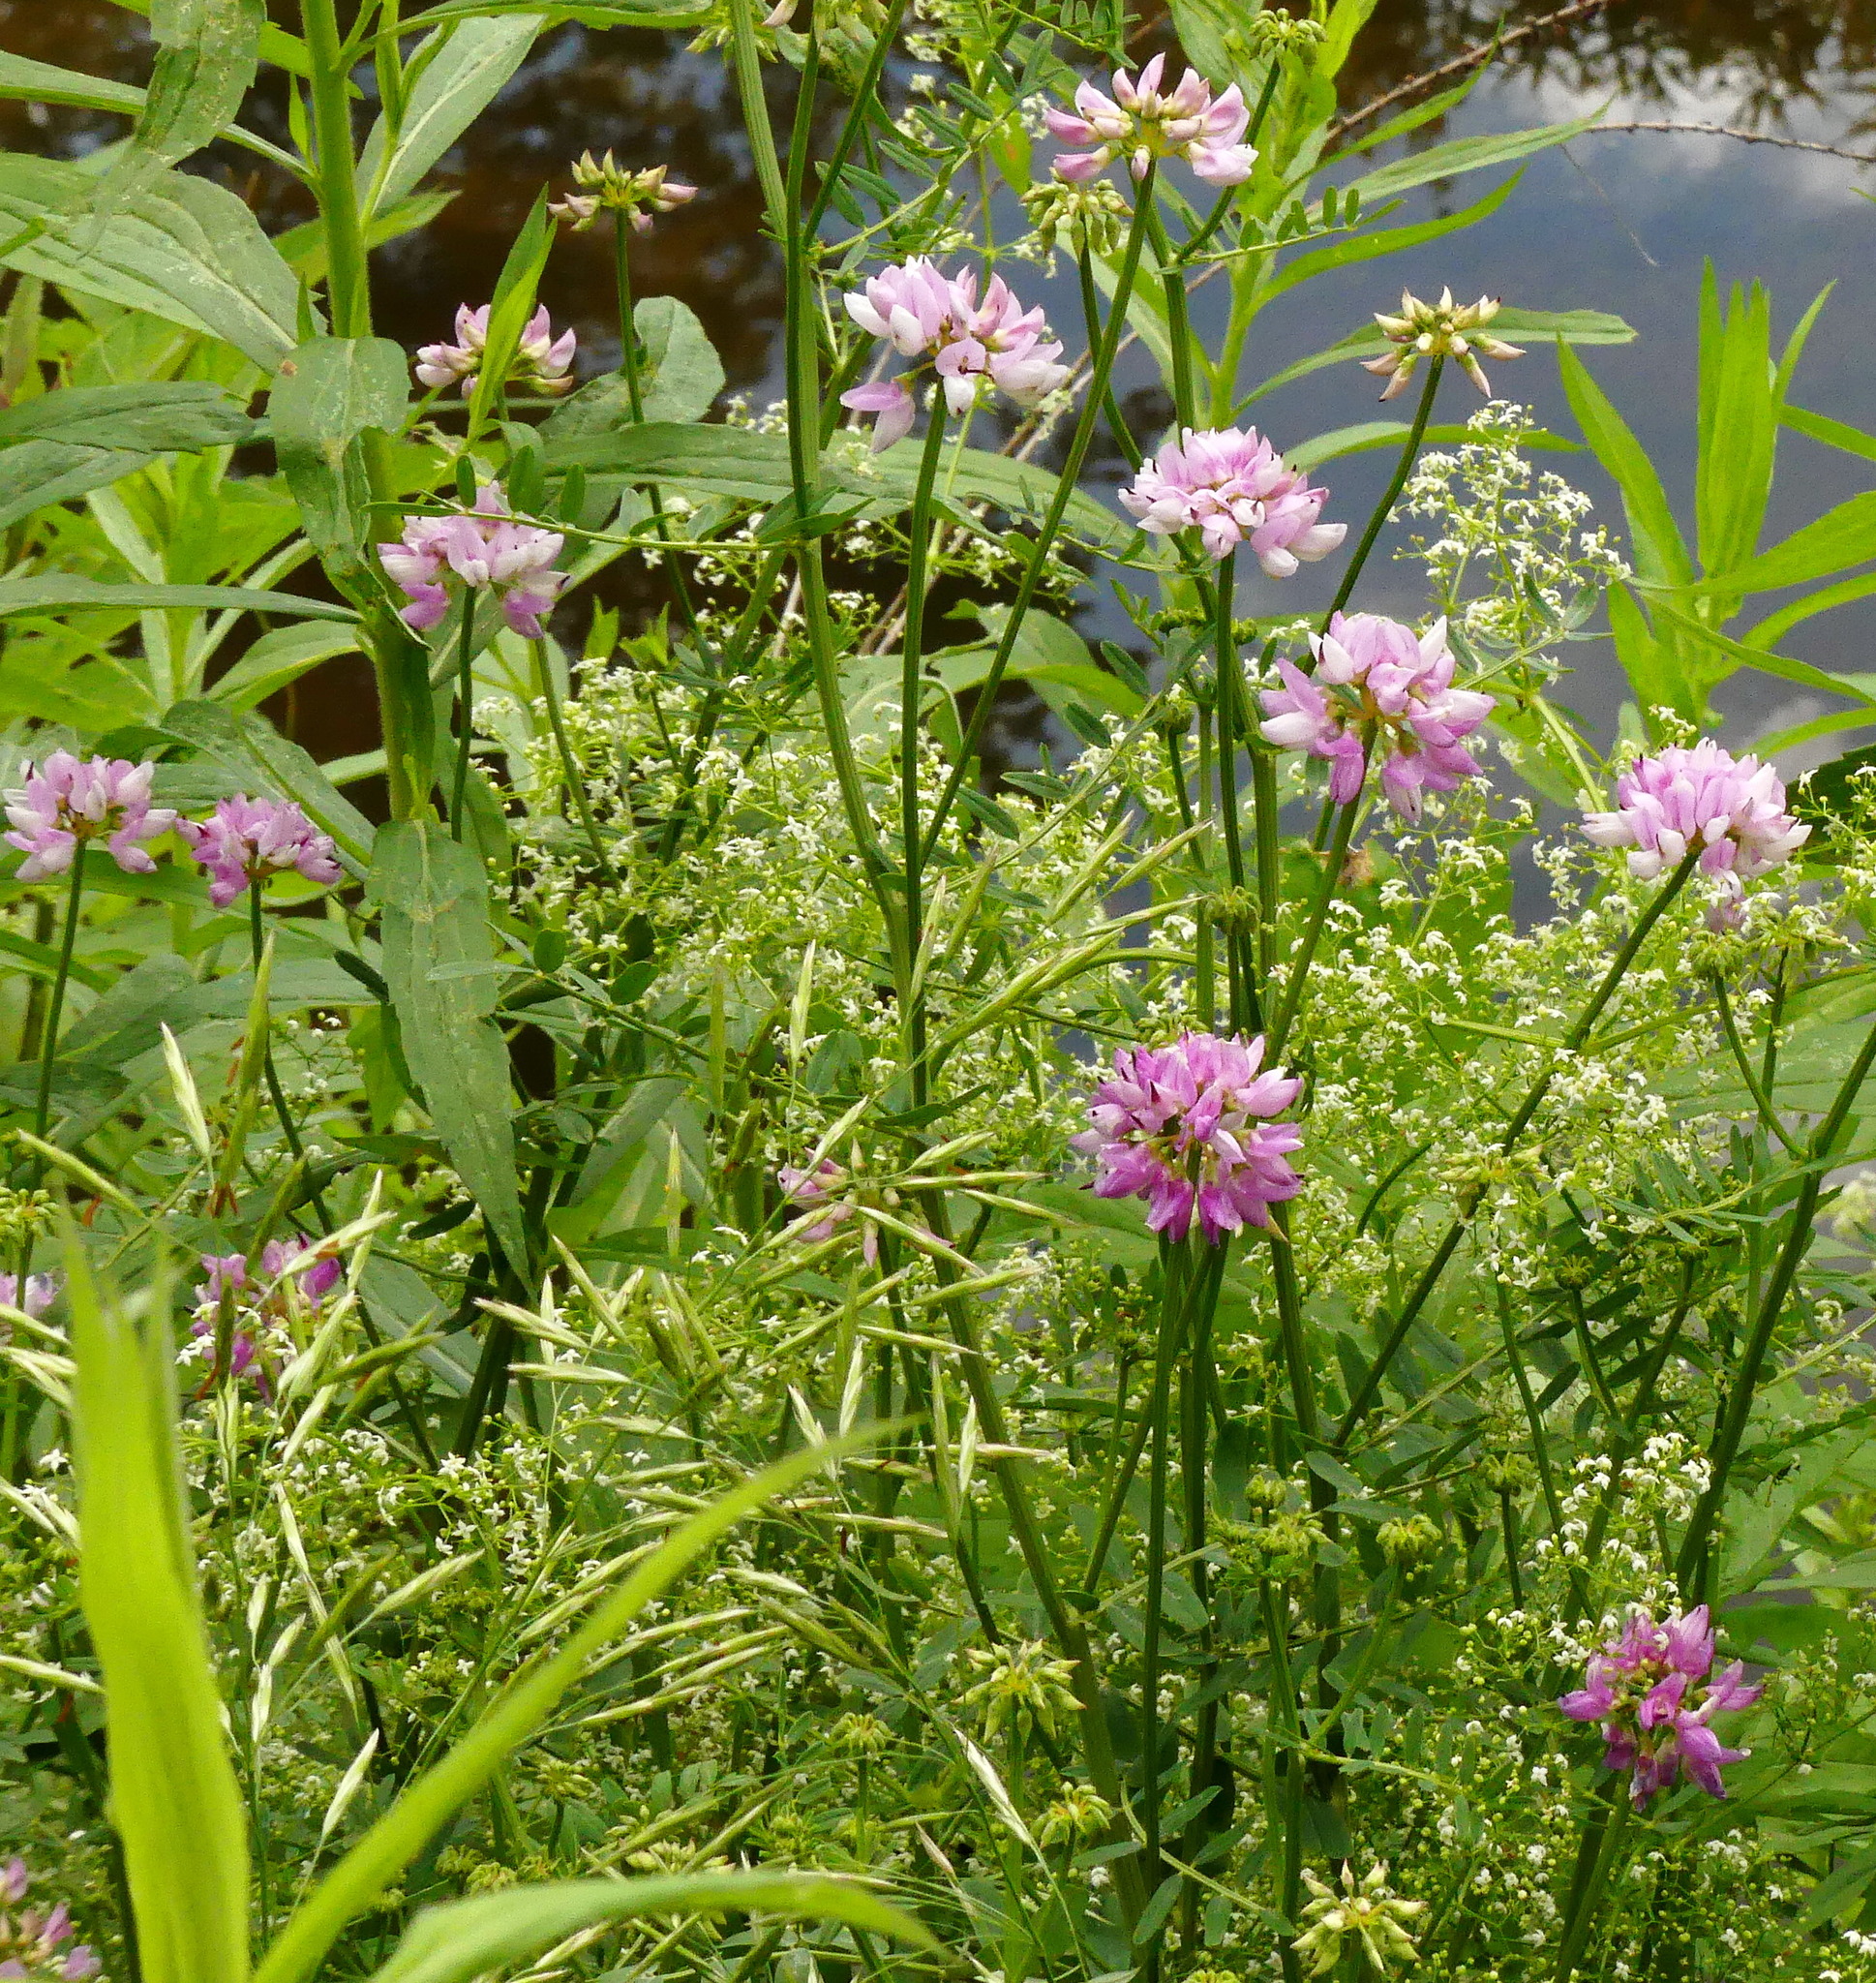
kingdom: Plantae
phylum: Tracheophyta
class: Magnoliopsida
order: Fabales
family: Fabaceae
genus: Coronilla
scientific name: Coronilla varia
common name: Crownvetch
